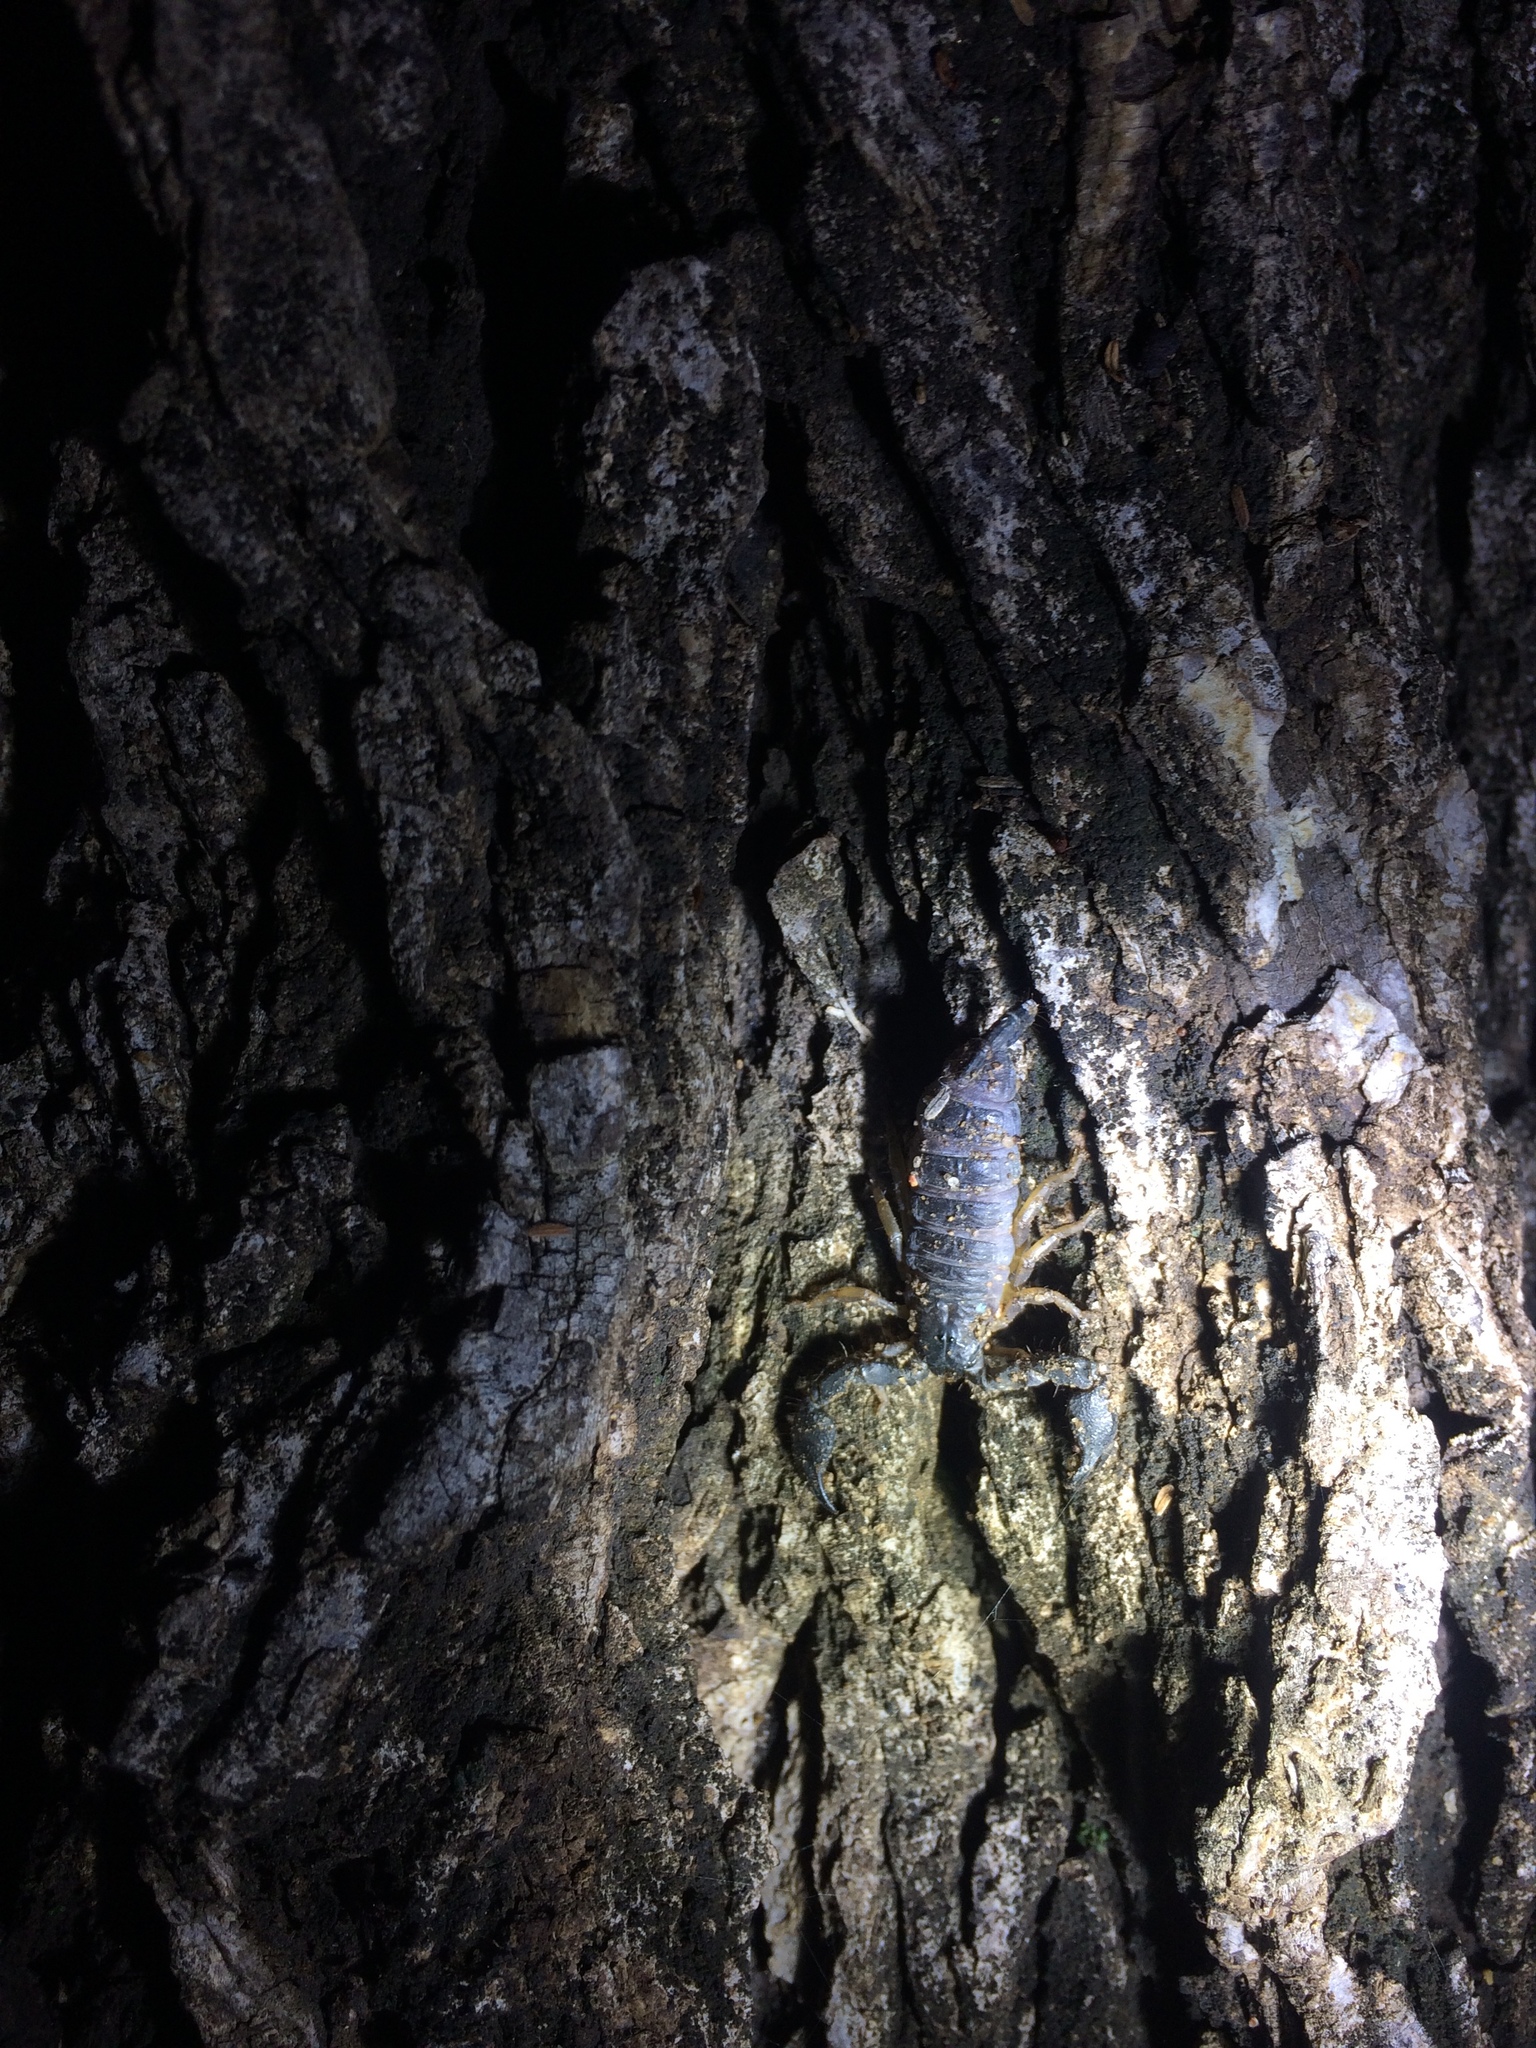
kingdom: Animalia
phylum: Arthropoda
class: Arachnida
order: Scorpiones
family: Hormuridae
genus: Opisthacanthus
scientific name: Opisthacanthus asper
